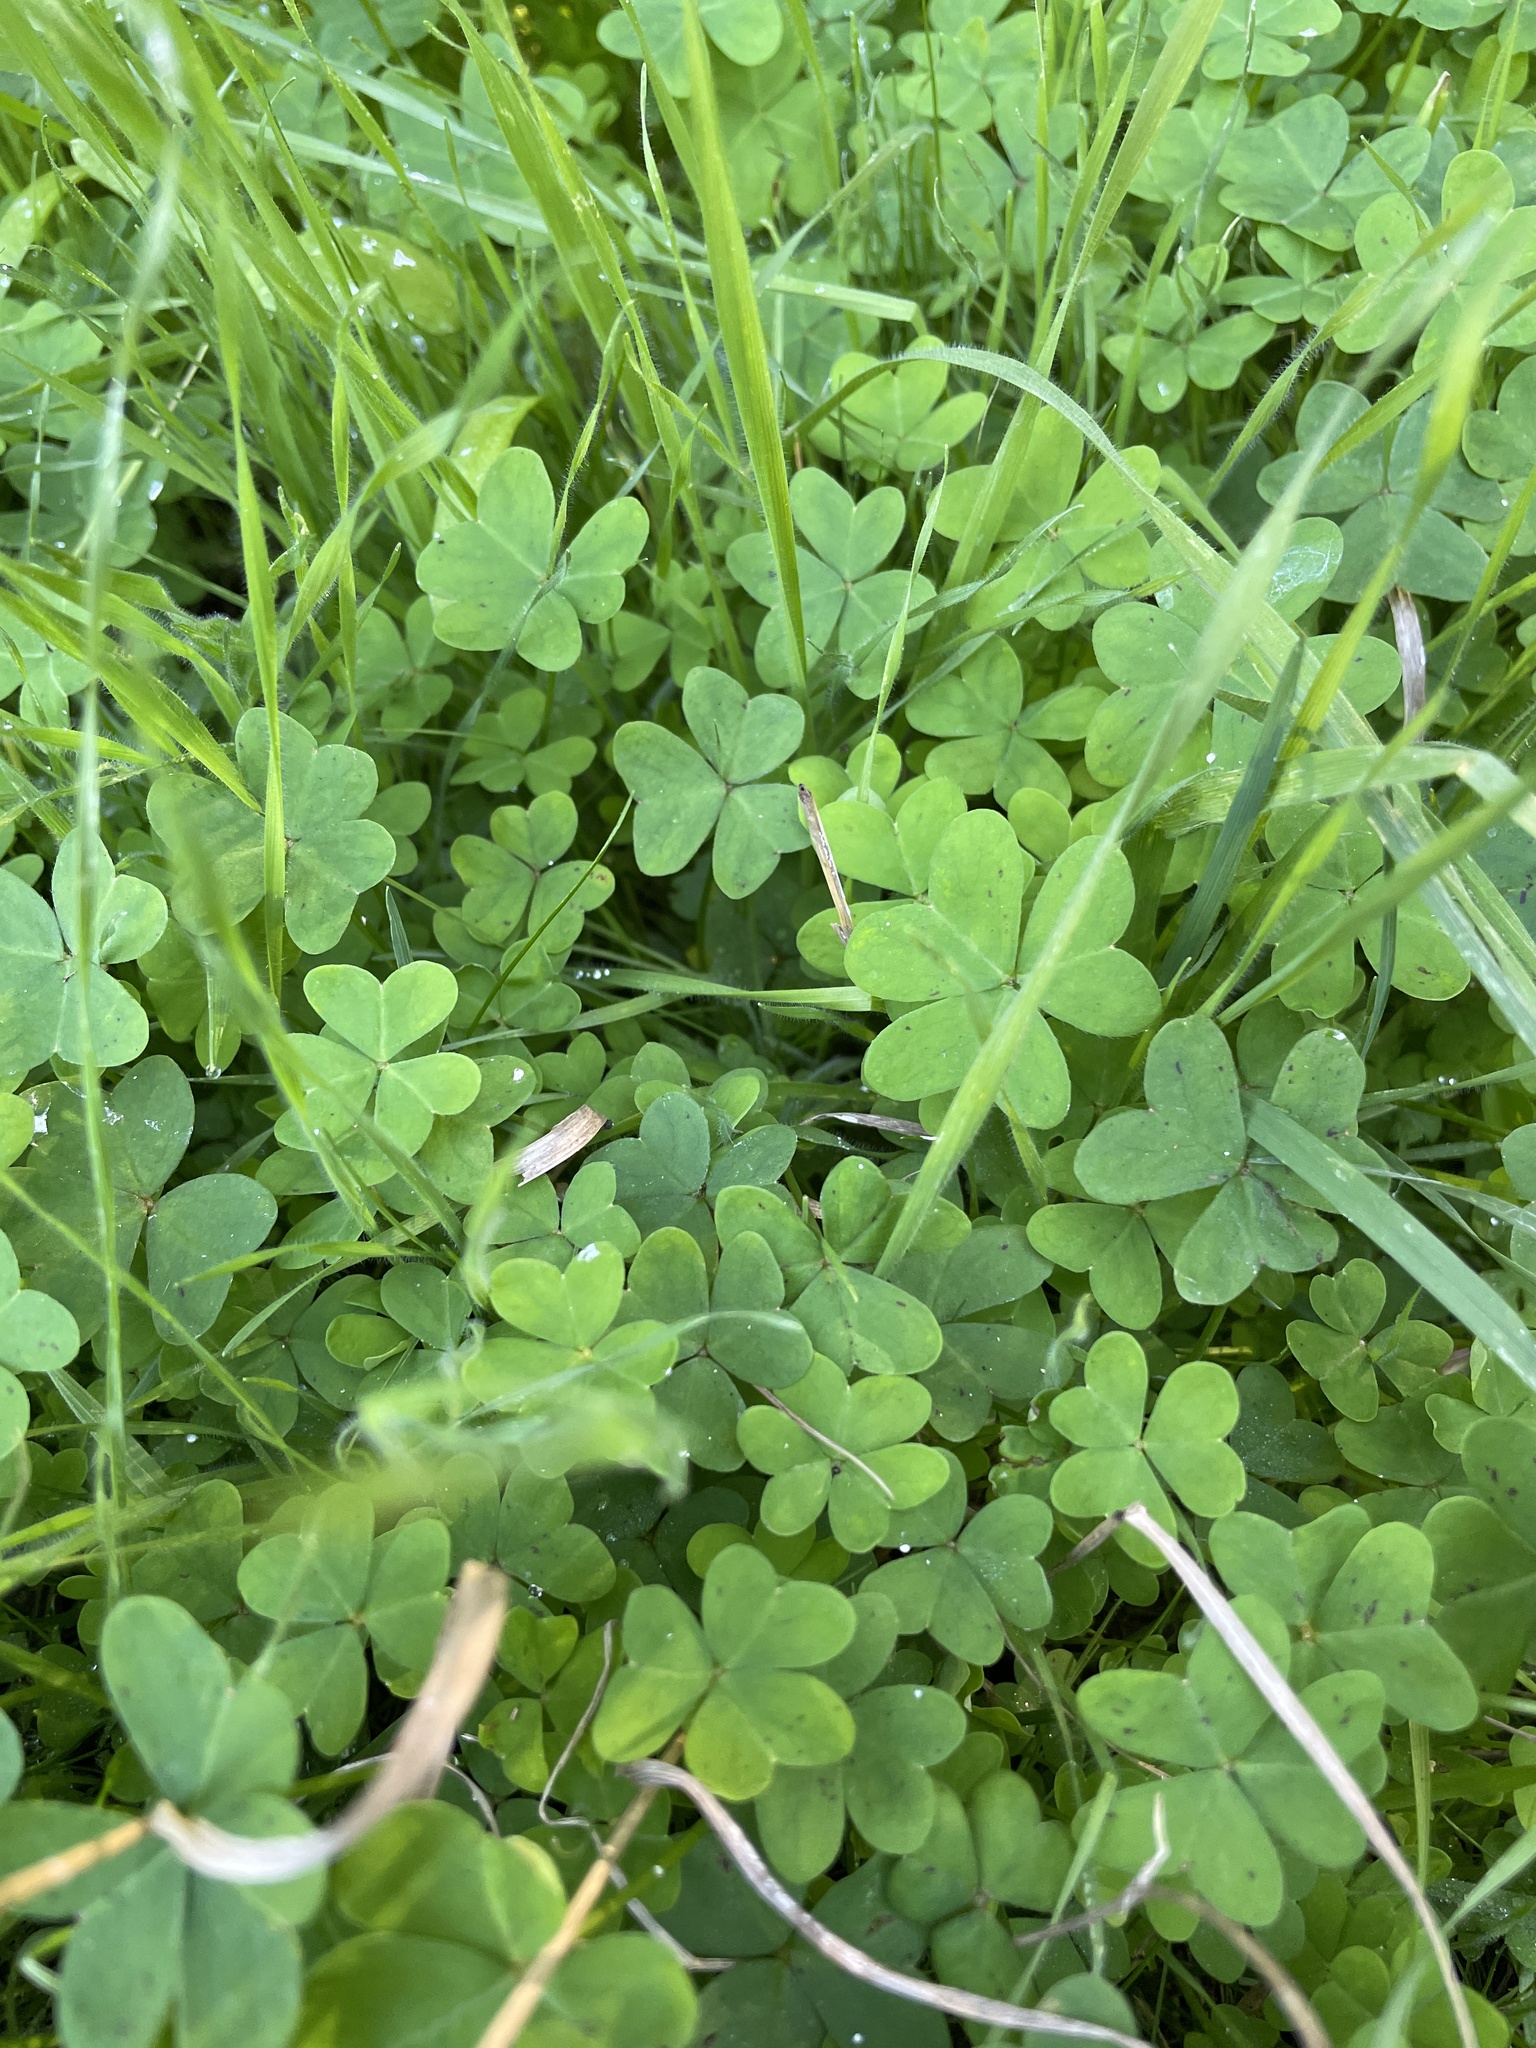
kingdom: Plantae
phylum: Tracheophyta
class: Magnoliopsida
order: Oxalidales
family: Oxalidaceae
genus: Oxalis
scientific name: Oxalis pes-caprae
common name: Bermuda-buttercup
